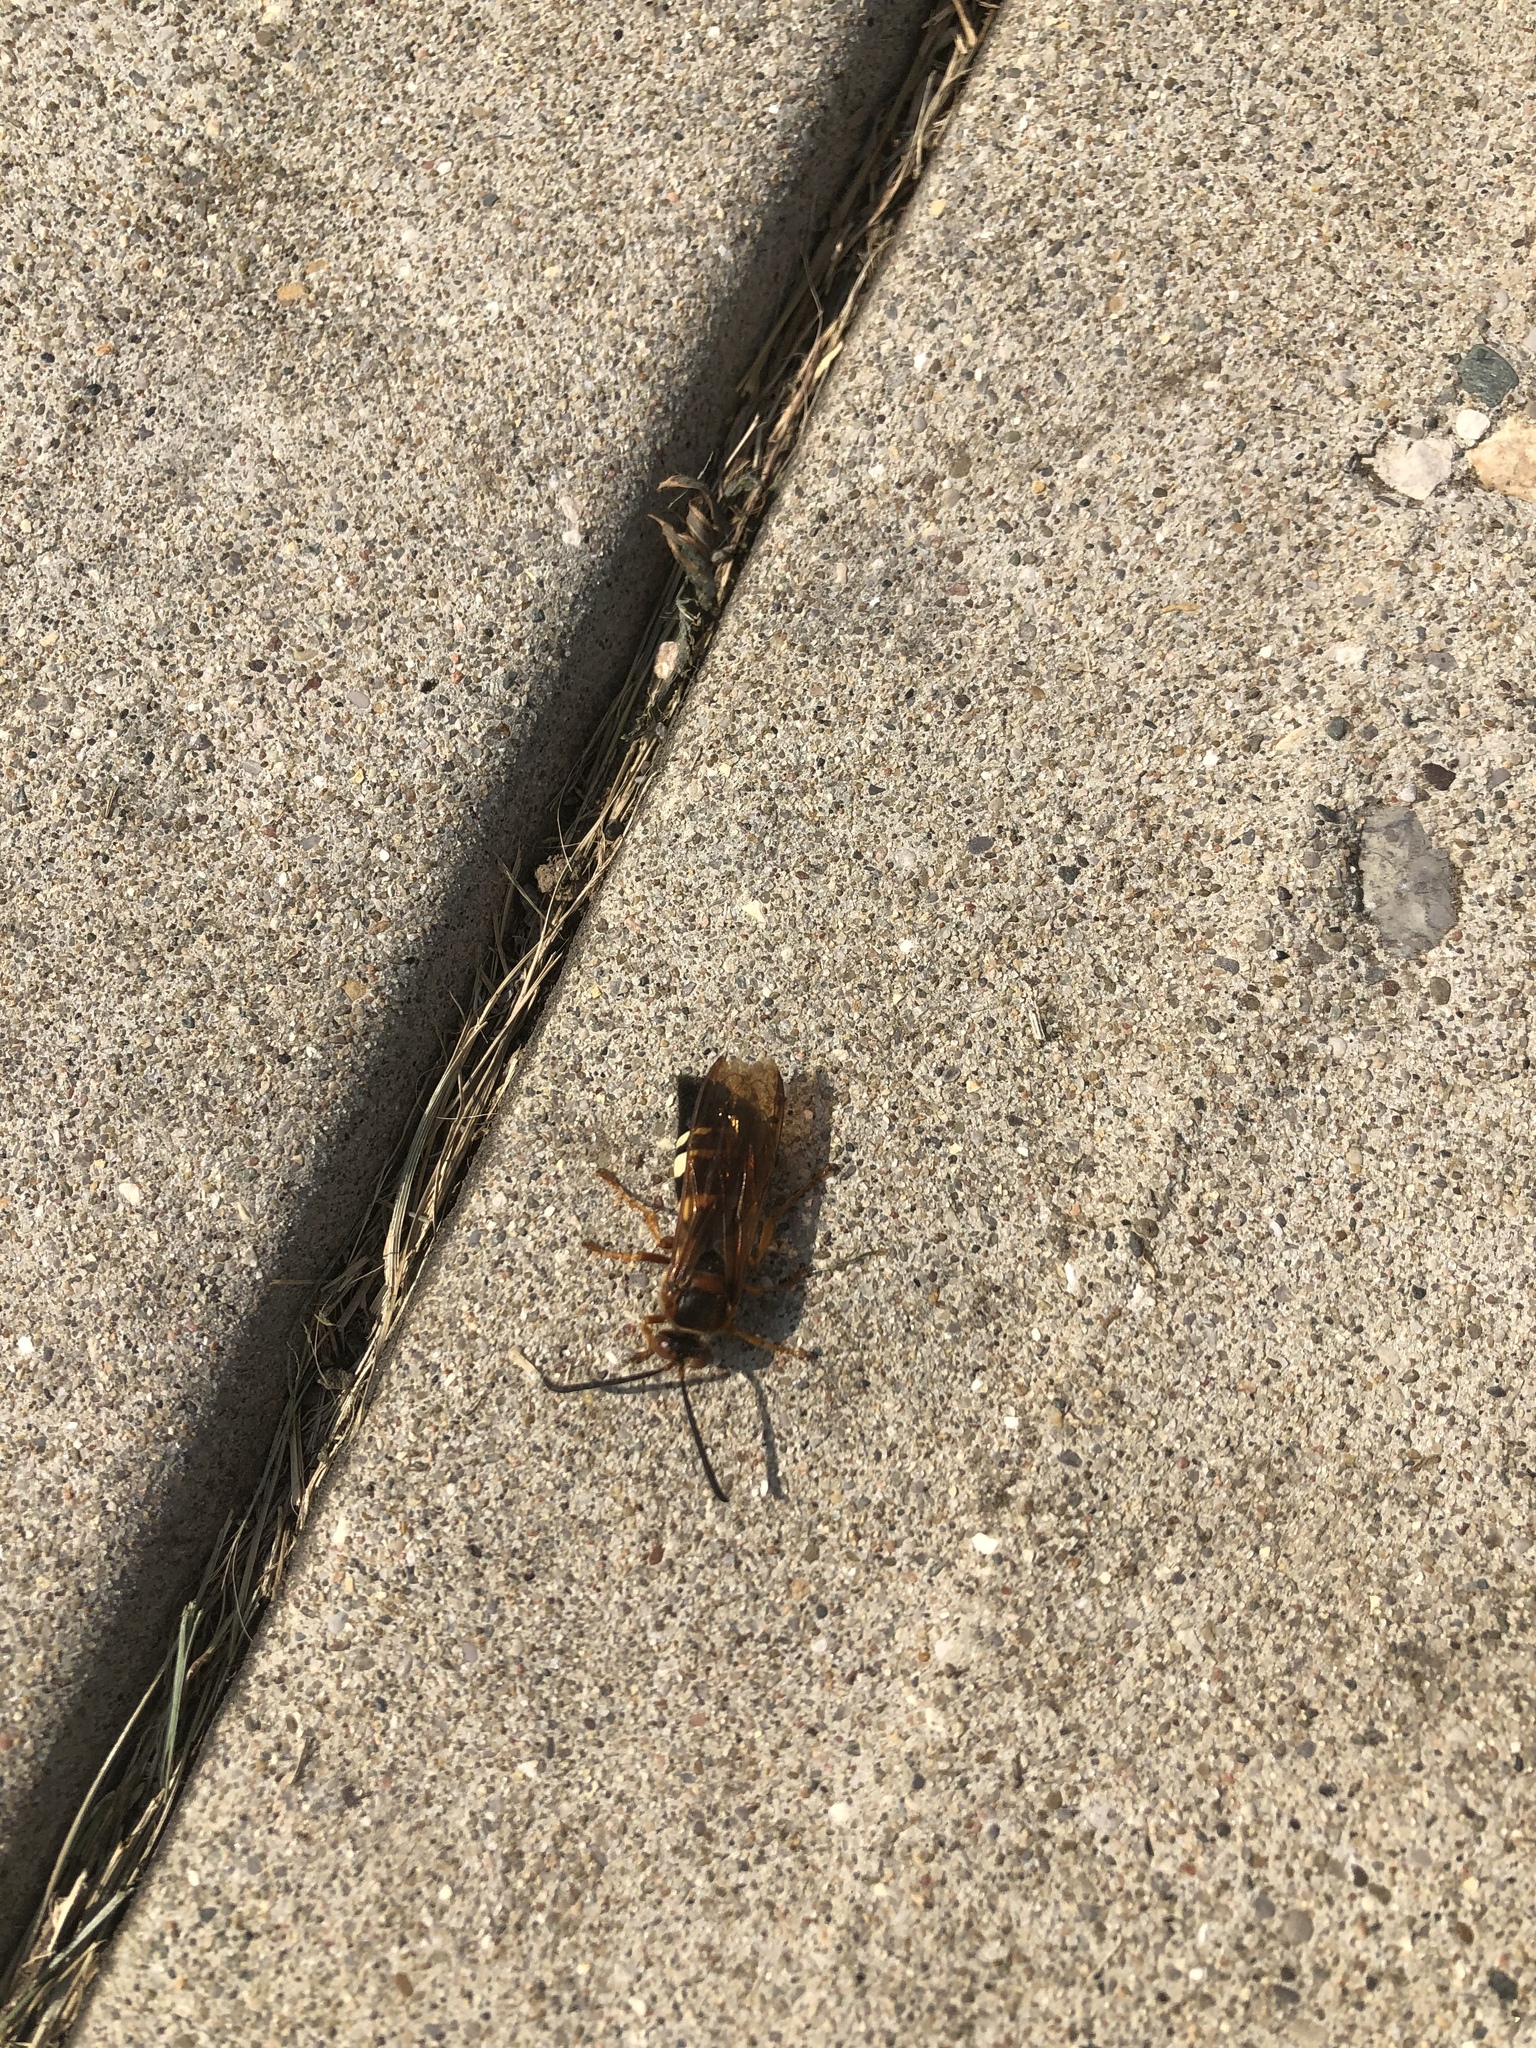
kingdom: Animalia
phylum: Arthropoda
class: Insecta
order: Hymenoptera
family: Crabronidae
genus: Sphecius
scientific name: Sphecius speciosus
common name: Cicada killer
